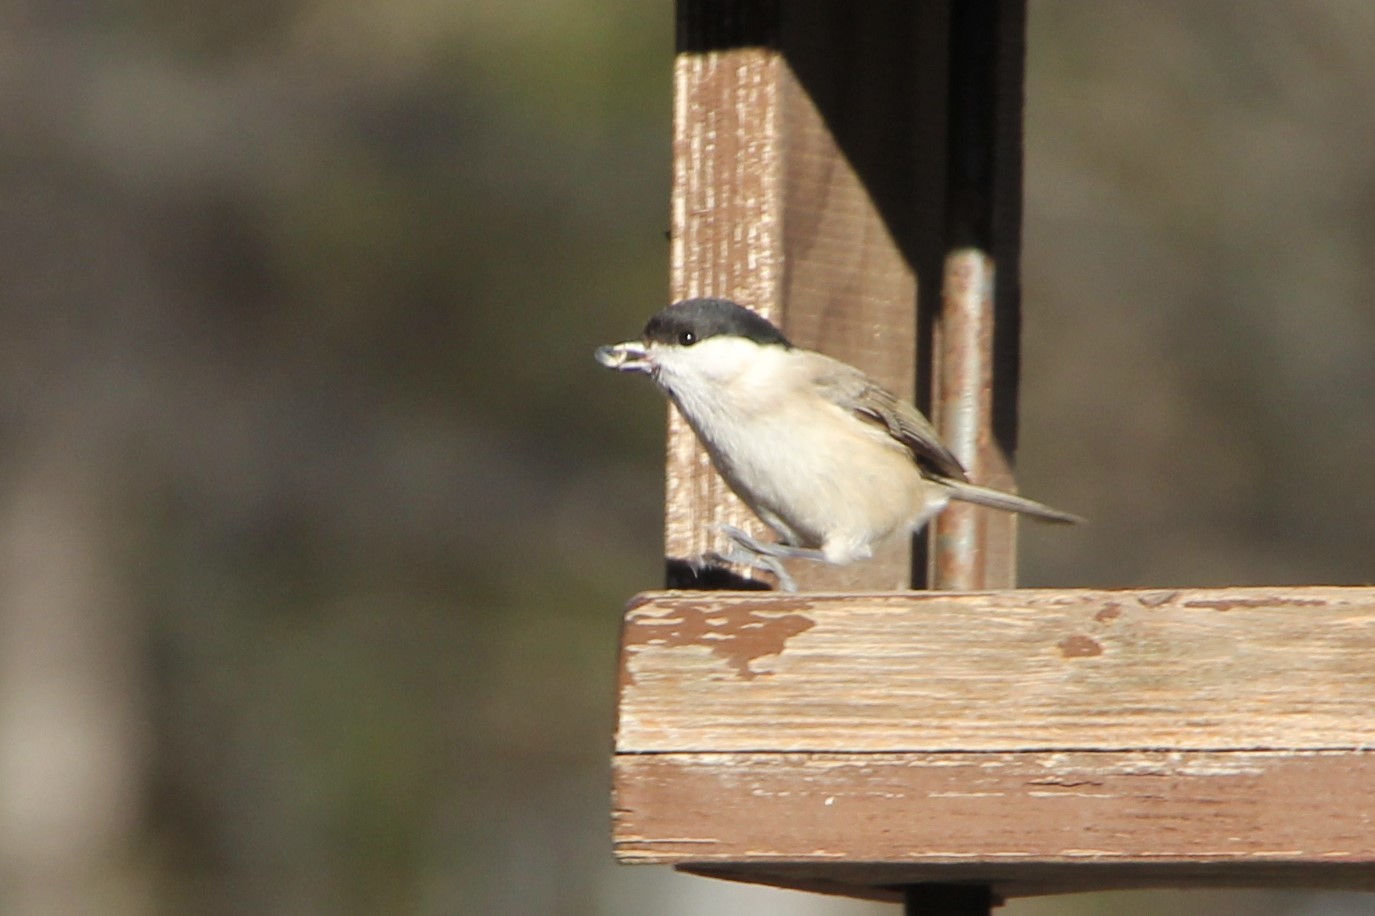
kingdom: Animalia
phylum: Chordata
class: Aves
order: Passeriformes
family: Paridae
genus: Poecile
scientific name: Poecile palustris
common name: Marsh tit
